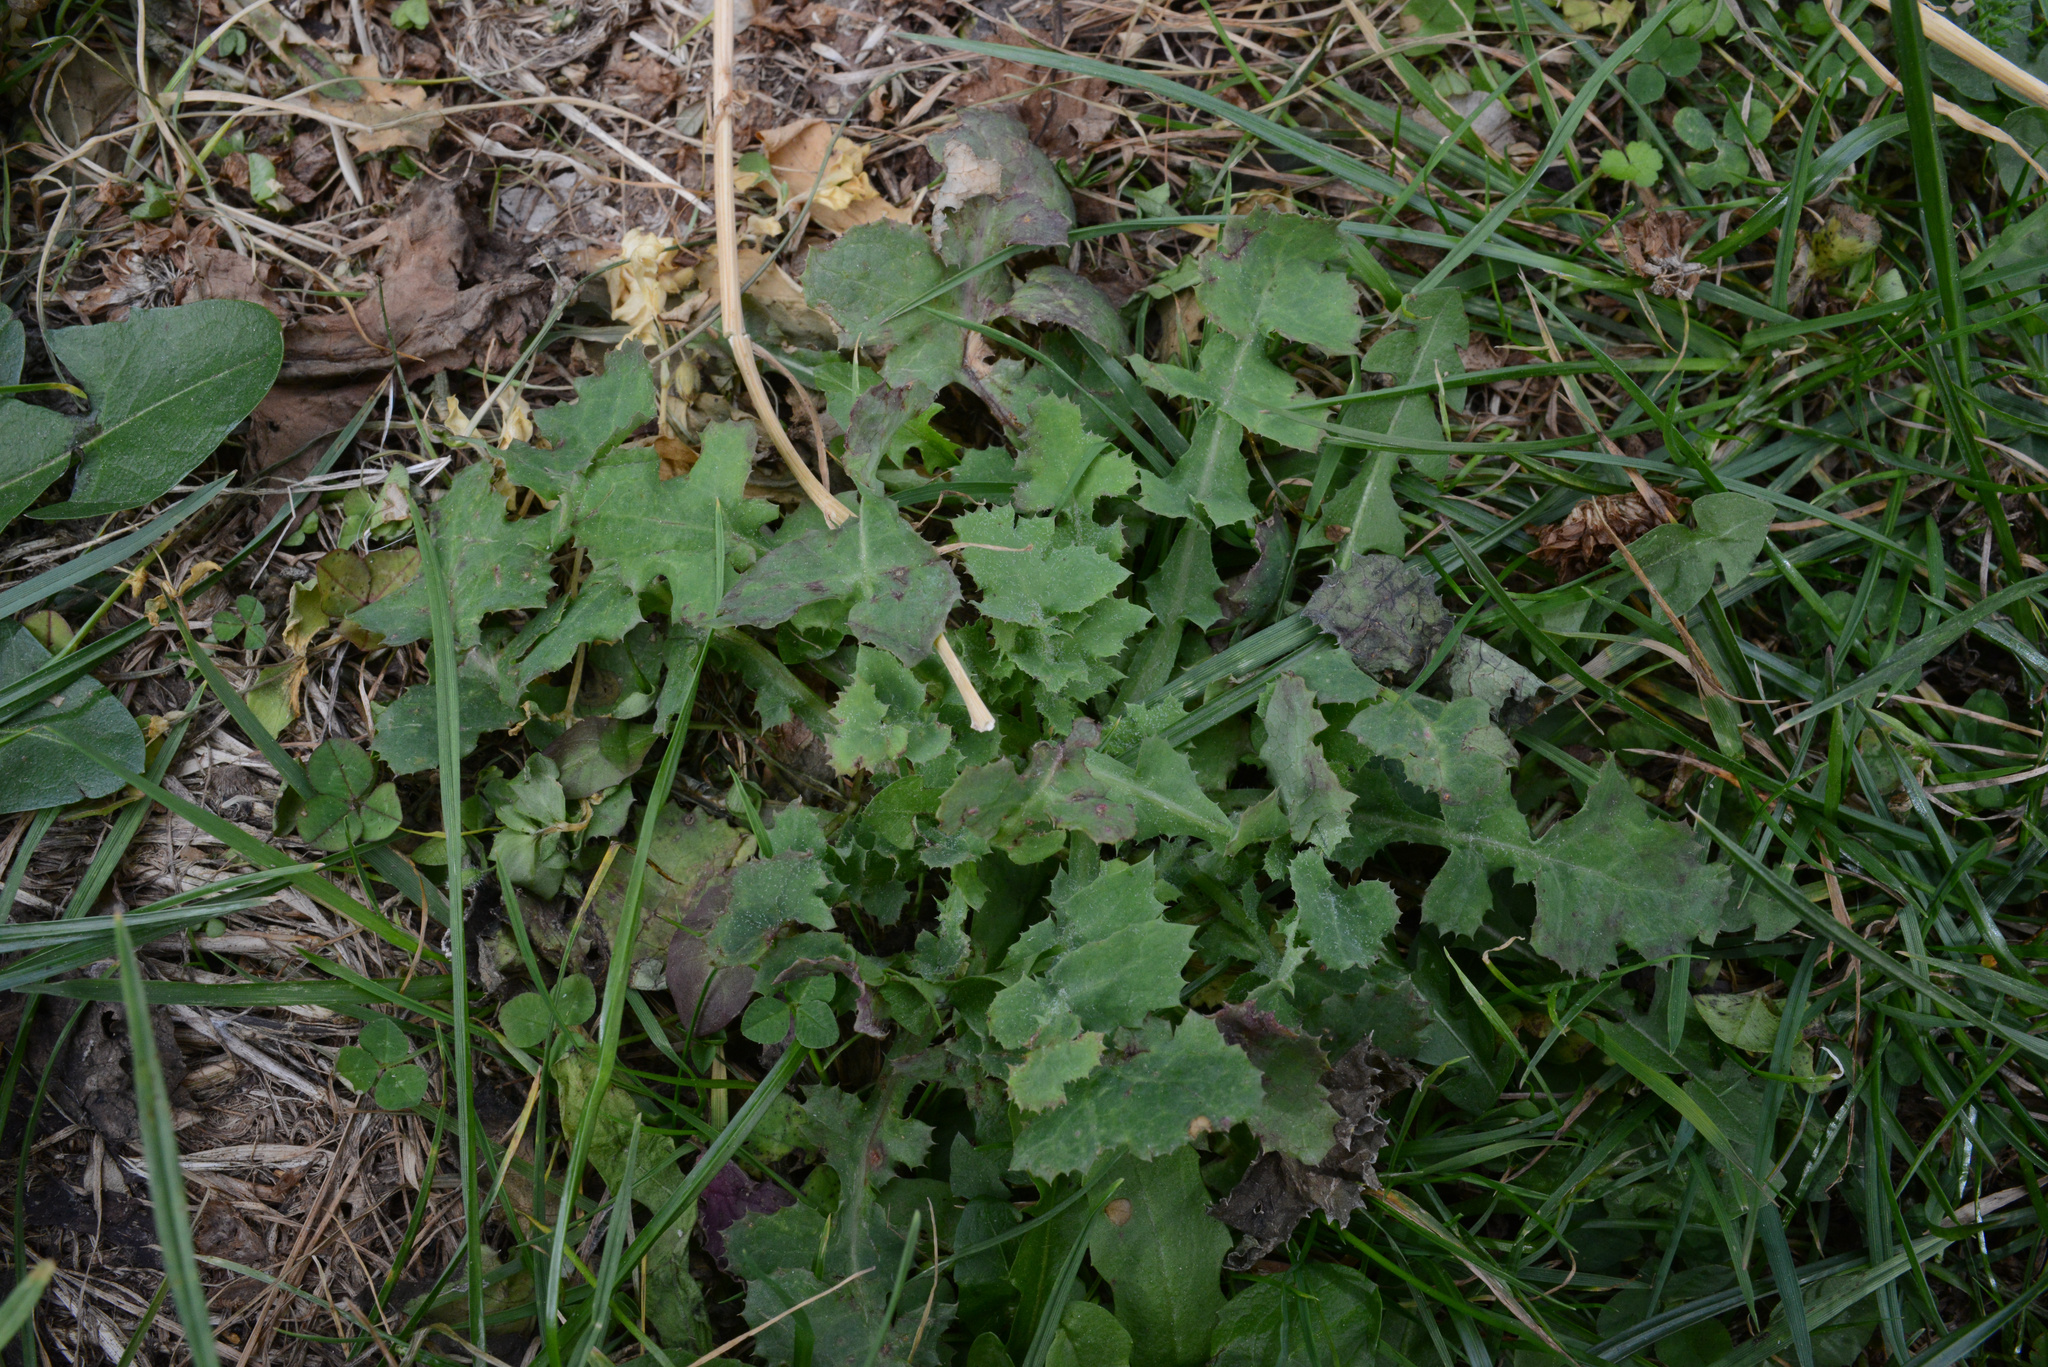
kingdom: Plantae
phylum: Tracheophyta
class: Magnoliopsida
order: Asterales
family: Asteraceae
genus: Sonchus
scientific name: Sonchus oleraceus
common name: Common sowthistle
